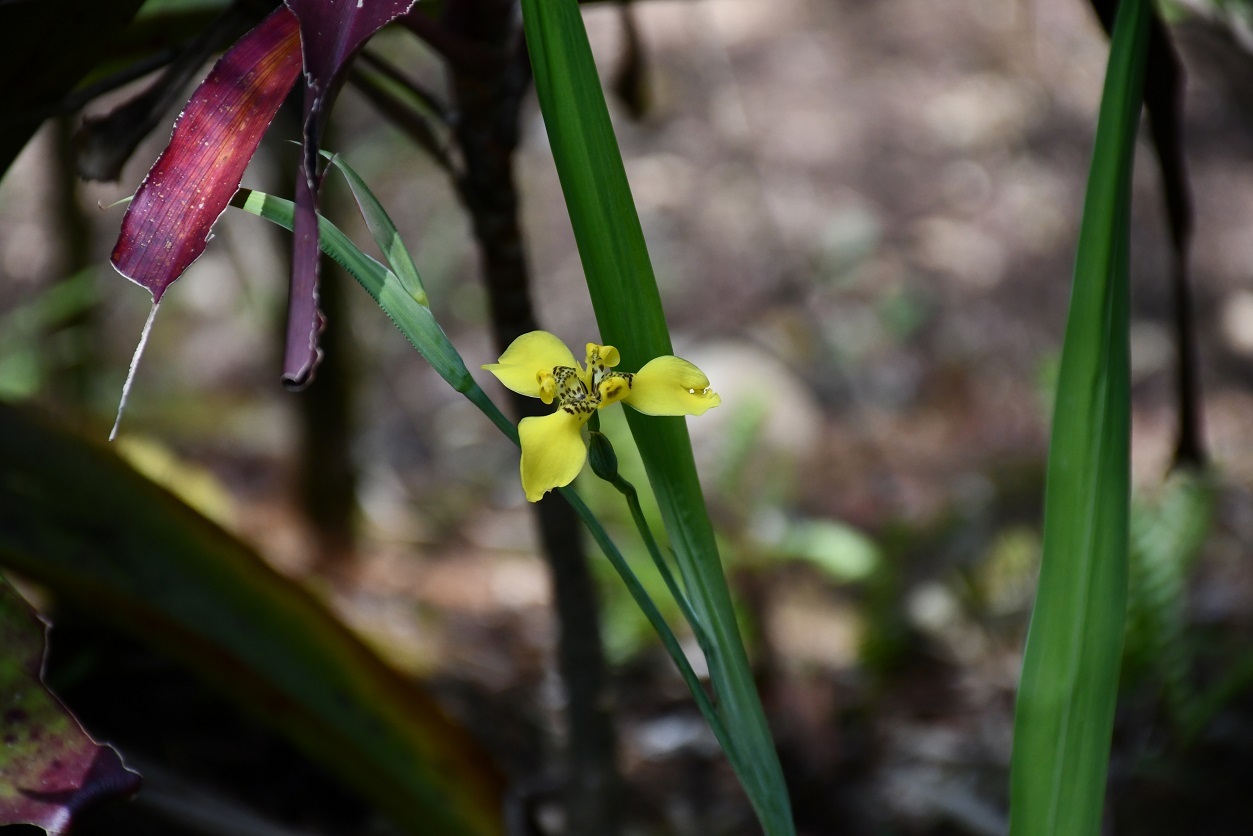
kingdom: Plantae
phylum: Tracheophyta
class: Liliopsida
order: Asparagales
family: Iridaceae
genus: Trimezia
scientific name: Trimezia steyermarkii
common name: Trimezia
